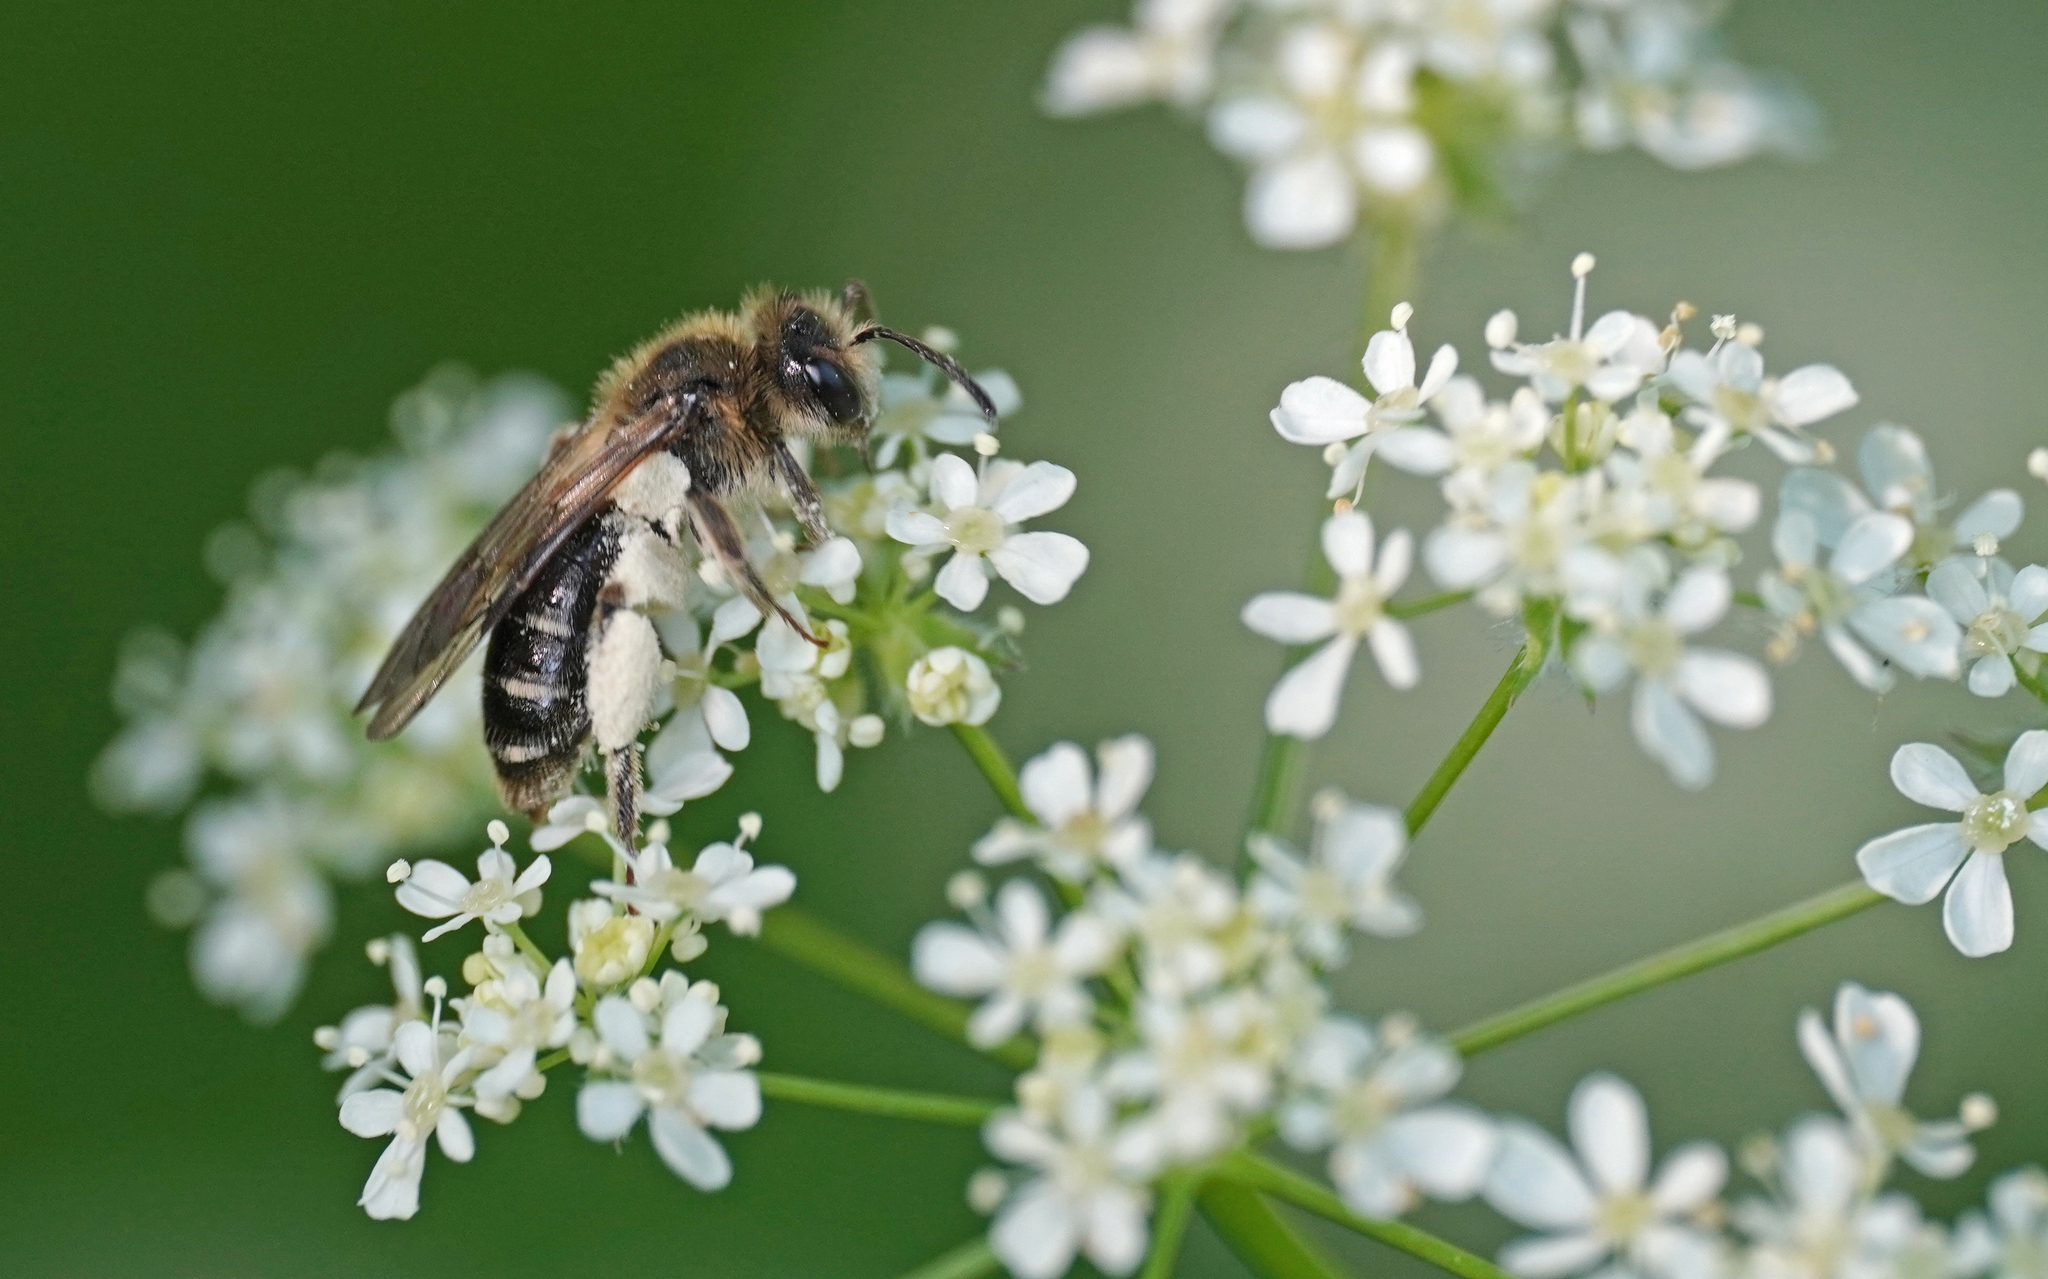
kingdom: Animalia
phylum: Arthropoda
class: Insecta
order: Hymenoptera
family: Andrenidae
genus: Andrena
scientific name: Andrena proxima
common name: Broad-faced mining bee
